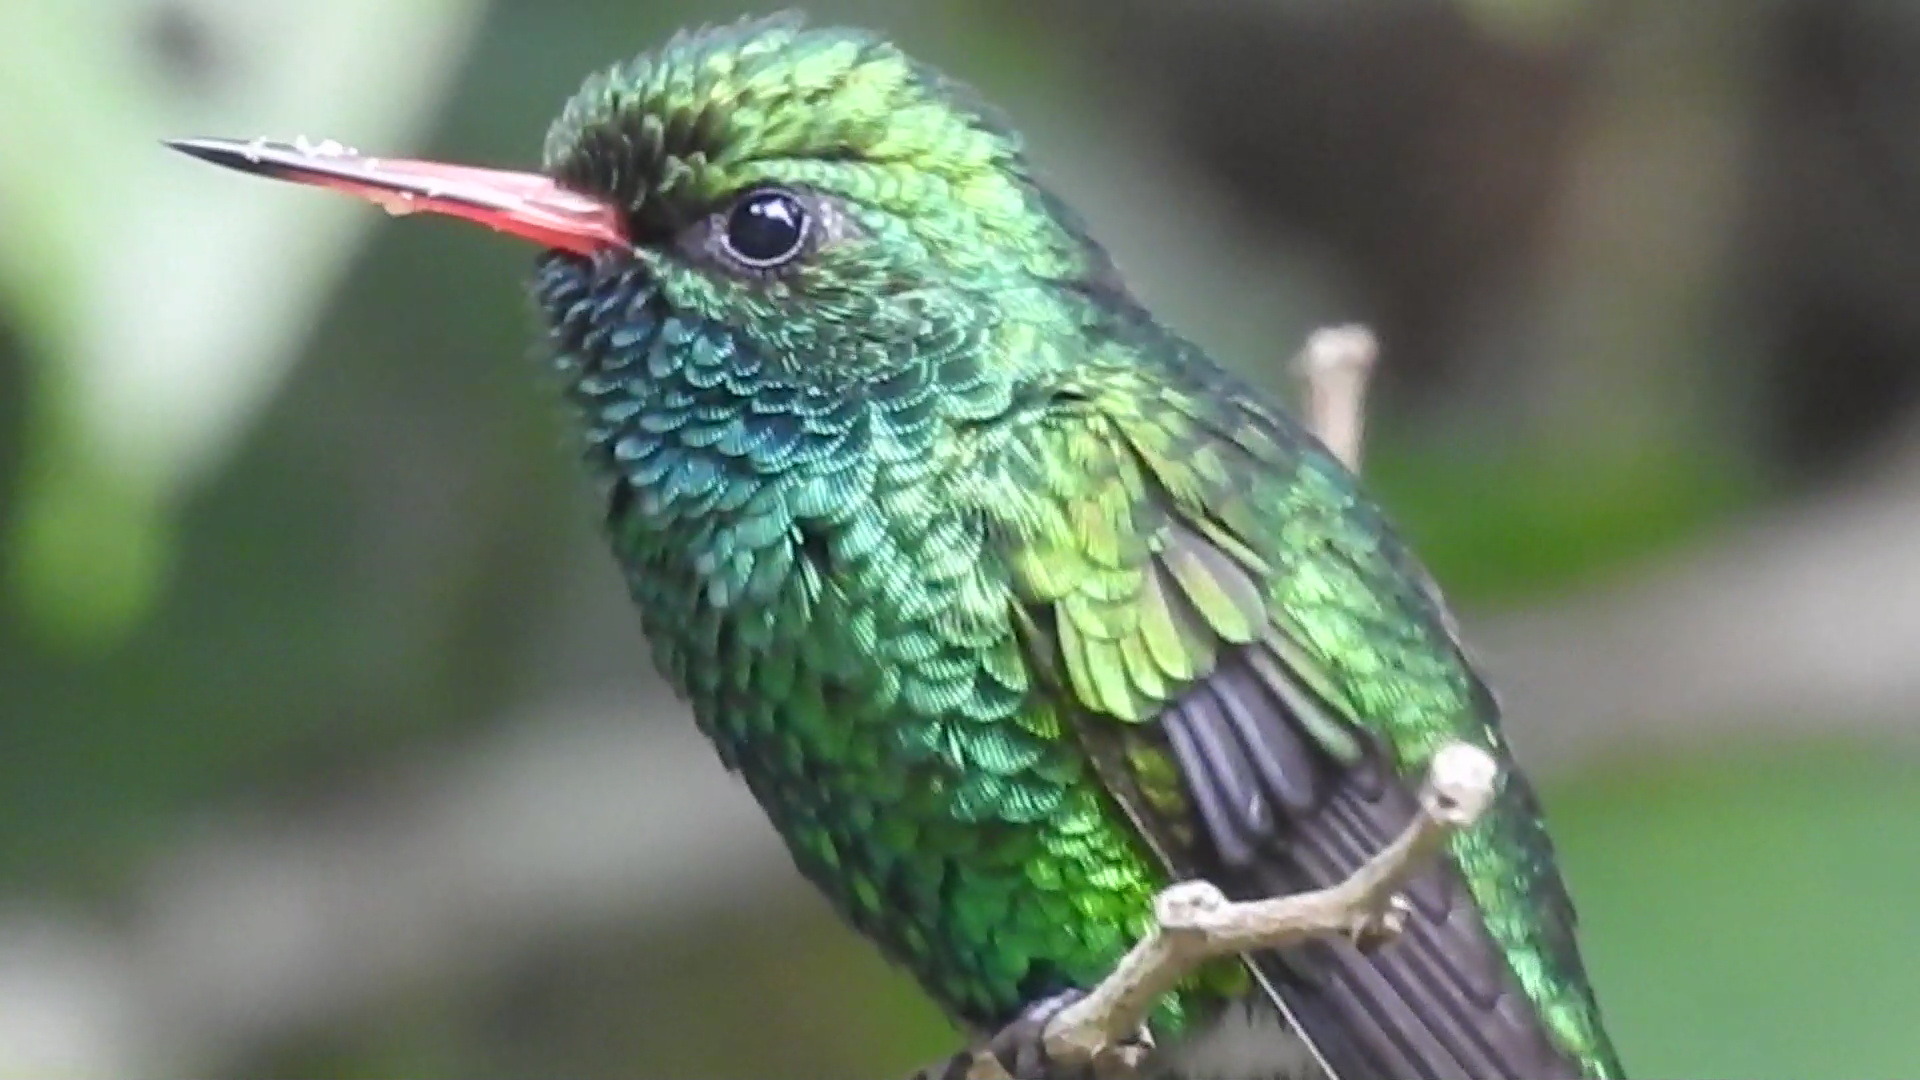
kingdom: Animalia
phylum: Chordata
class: Aves
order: Apodiformes
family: Trochilidae
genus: Cynanthus
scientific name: Cynanthus canivetii
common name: Canivet's emerald
